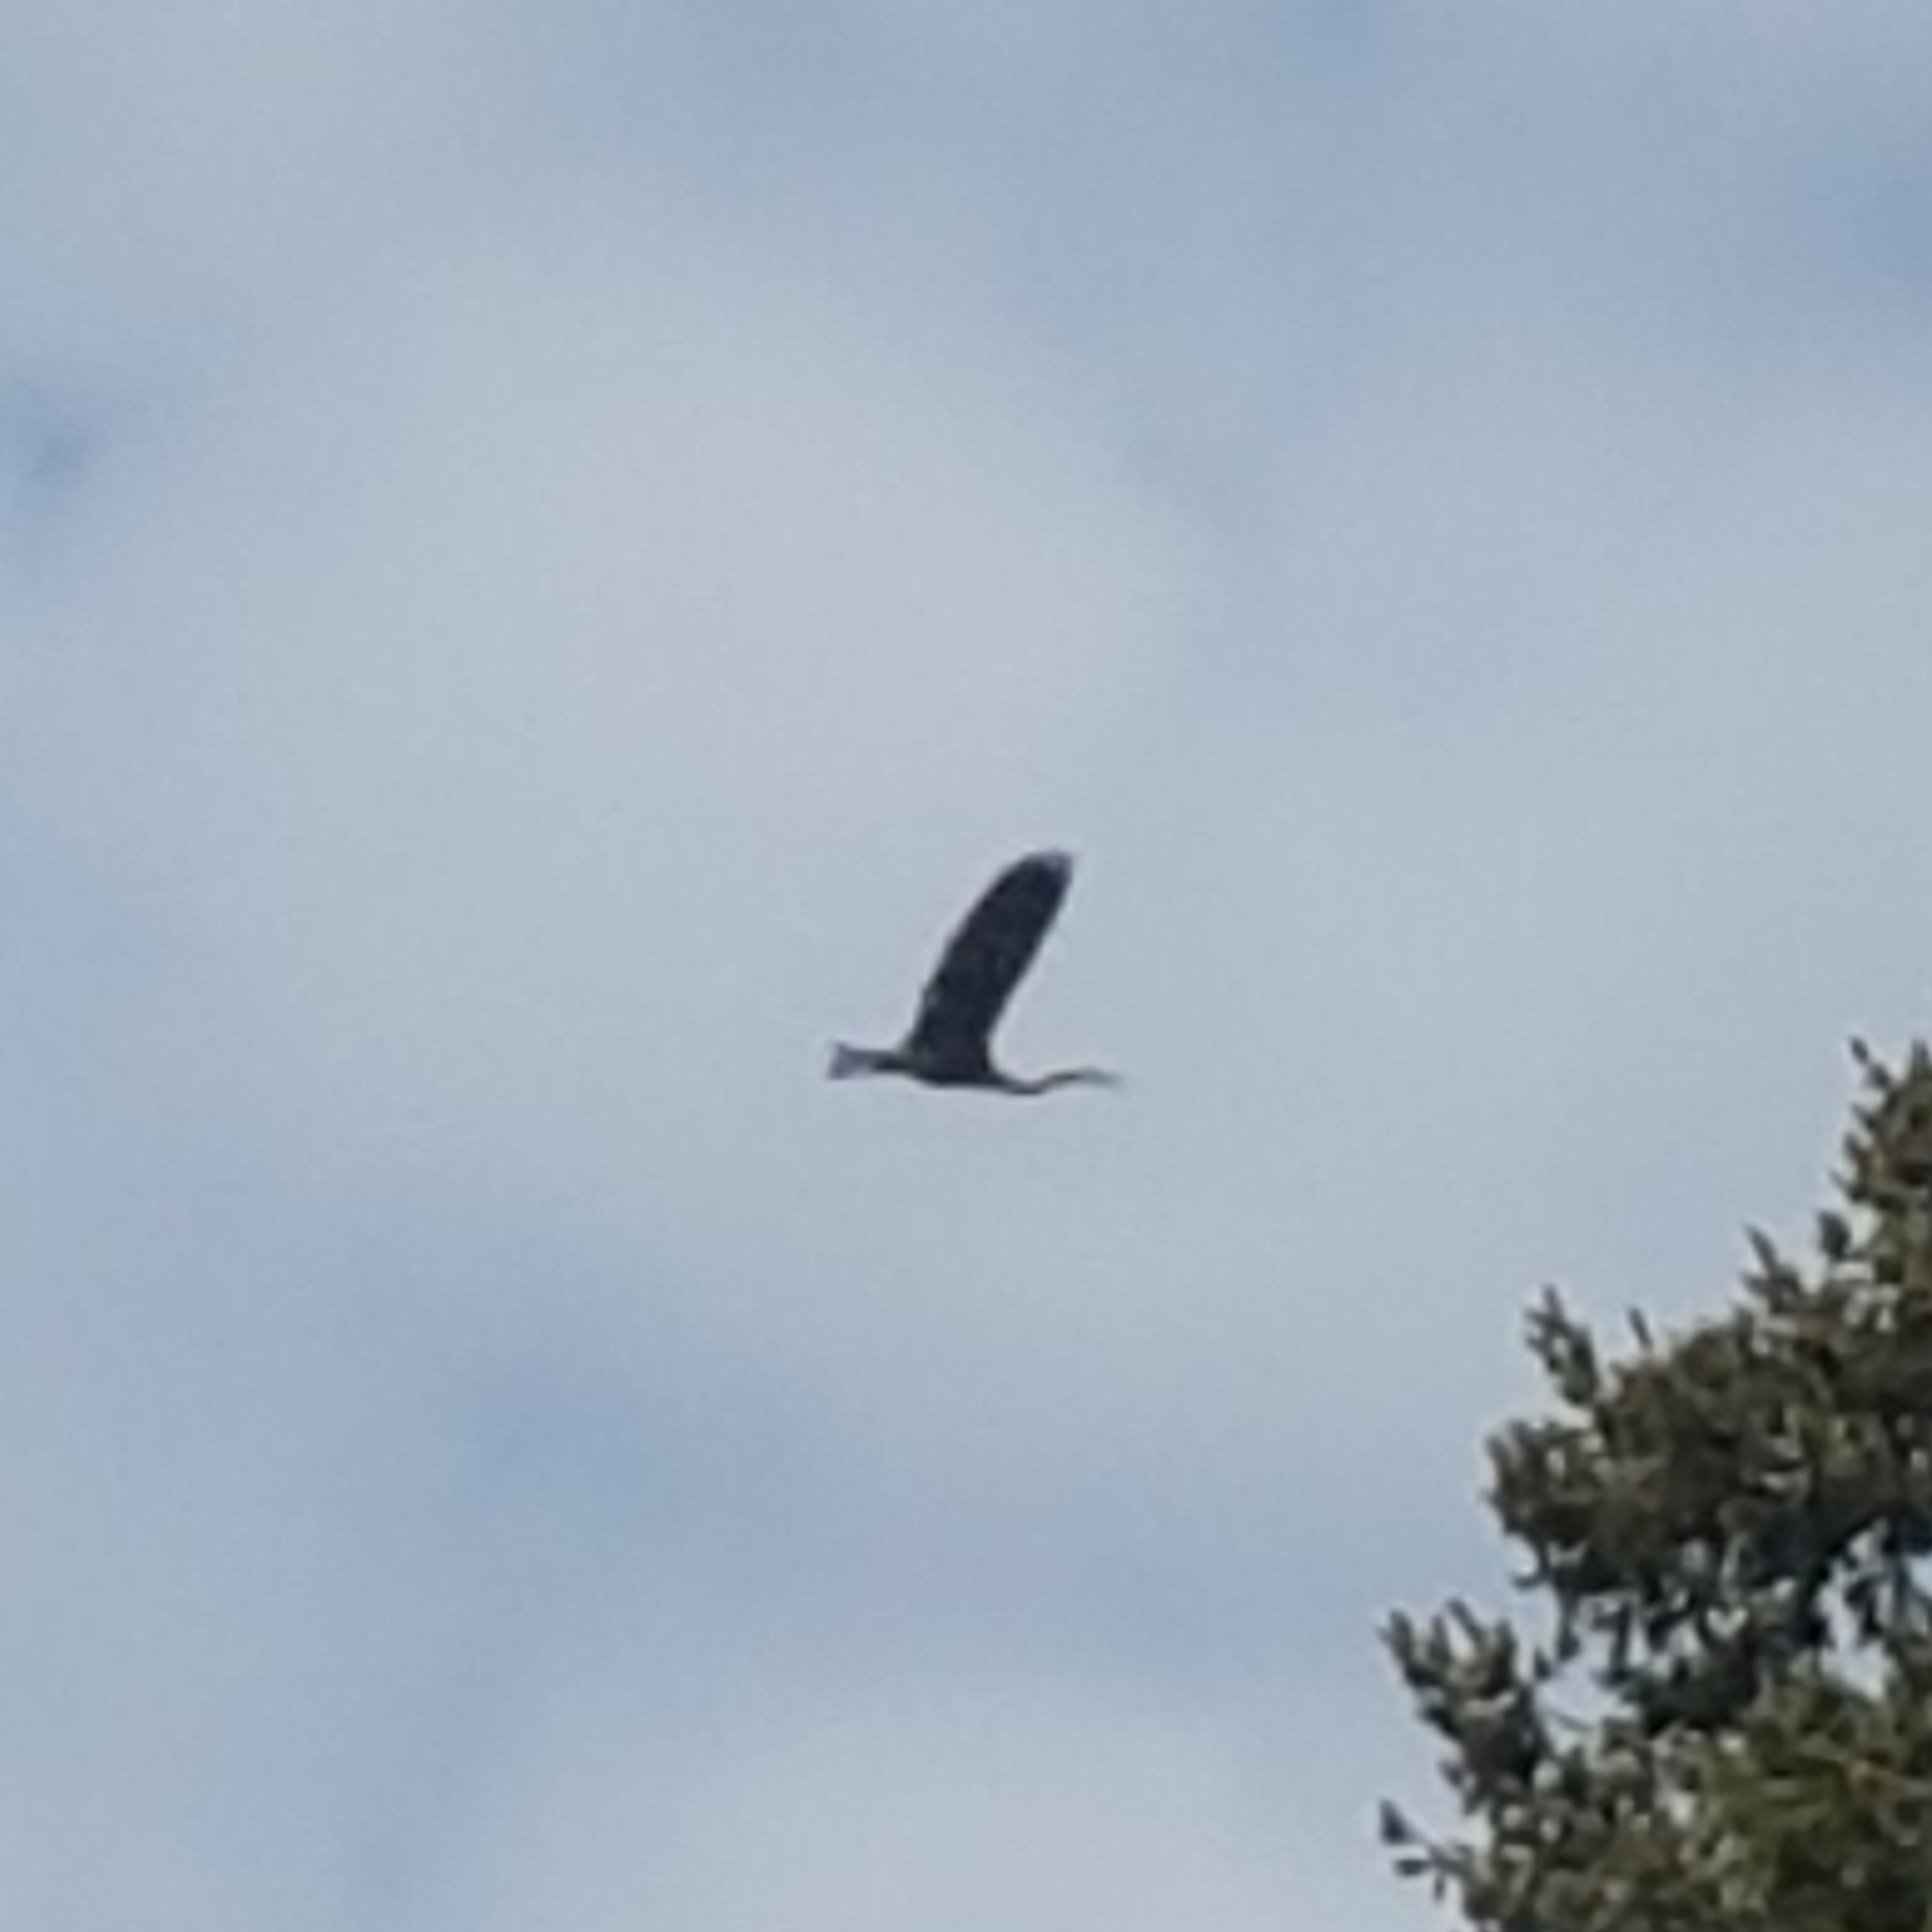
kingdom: Animalia
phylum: Chordata
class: Aves
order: Pelecaniformes
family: Ardeidae
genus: Ardea
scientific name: Ardea herodias
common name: Great blue heron
